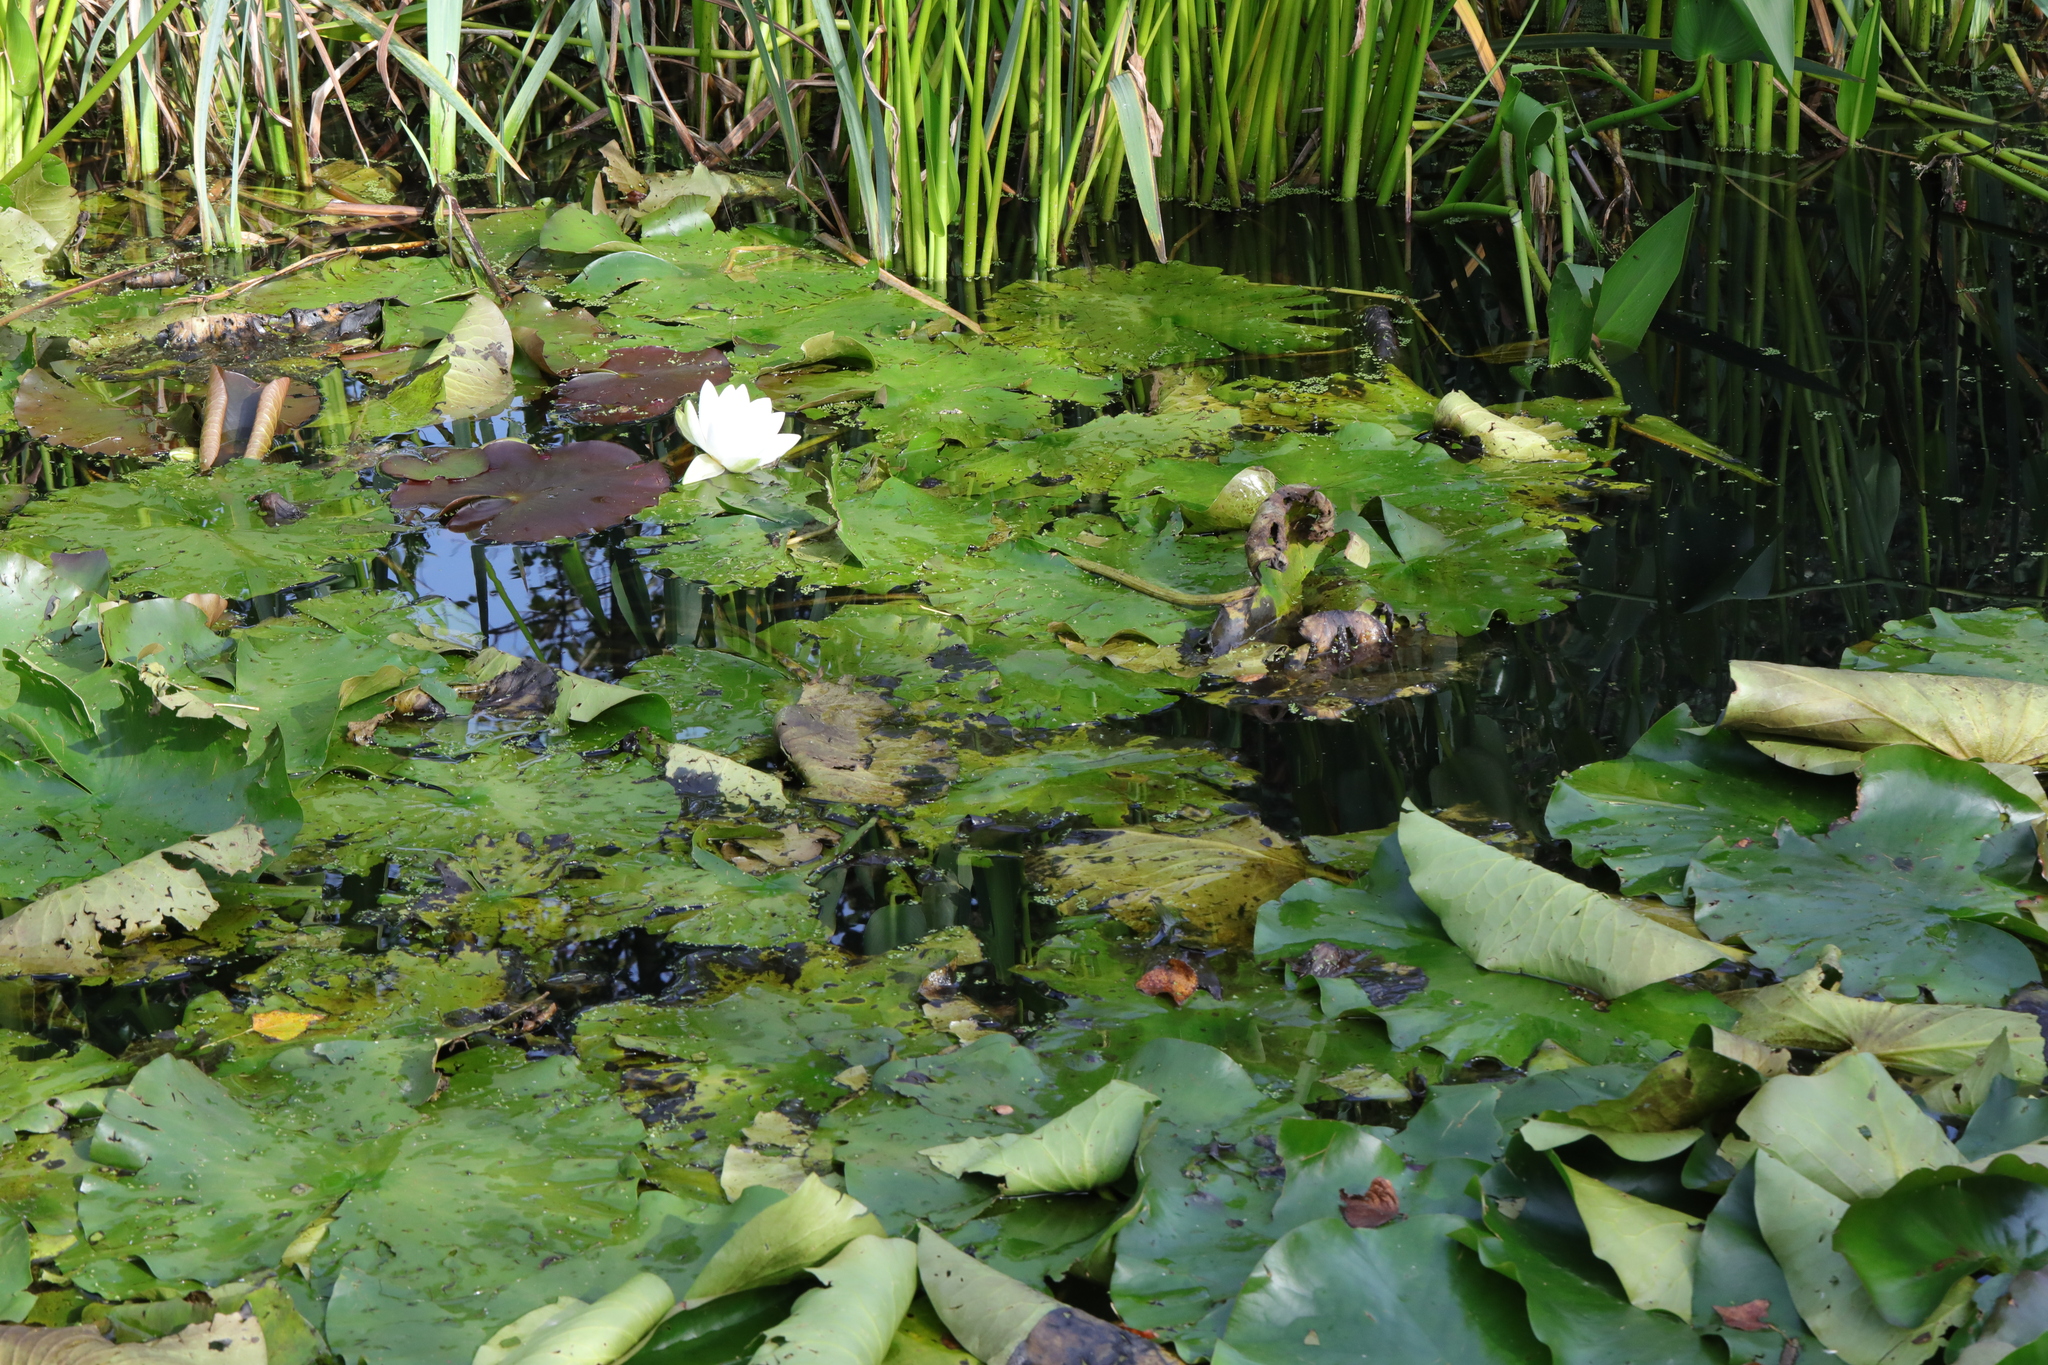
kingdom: Plantae
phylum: Tracheophyta
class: Magnoliopsida
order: Nymphaeales
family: Nymphaeaceae
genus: Nymphaea
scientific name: Nymphaea alba
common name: White water-lily
